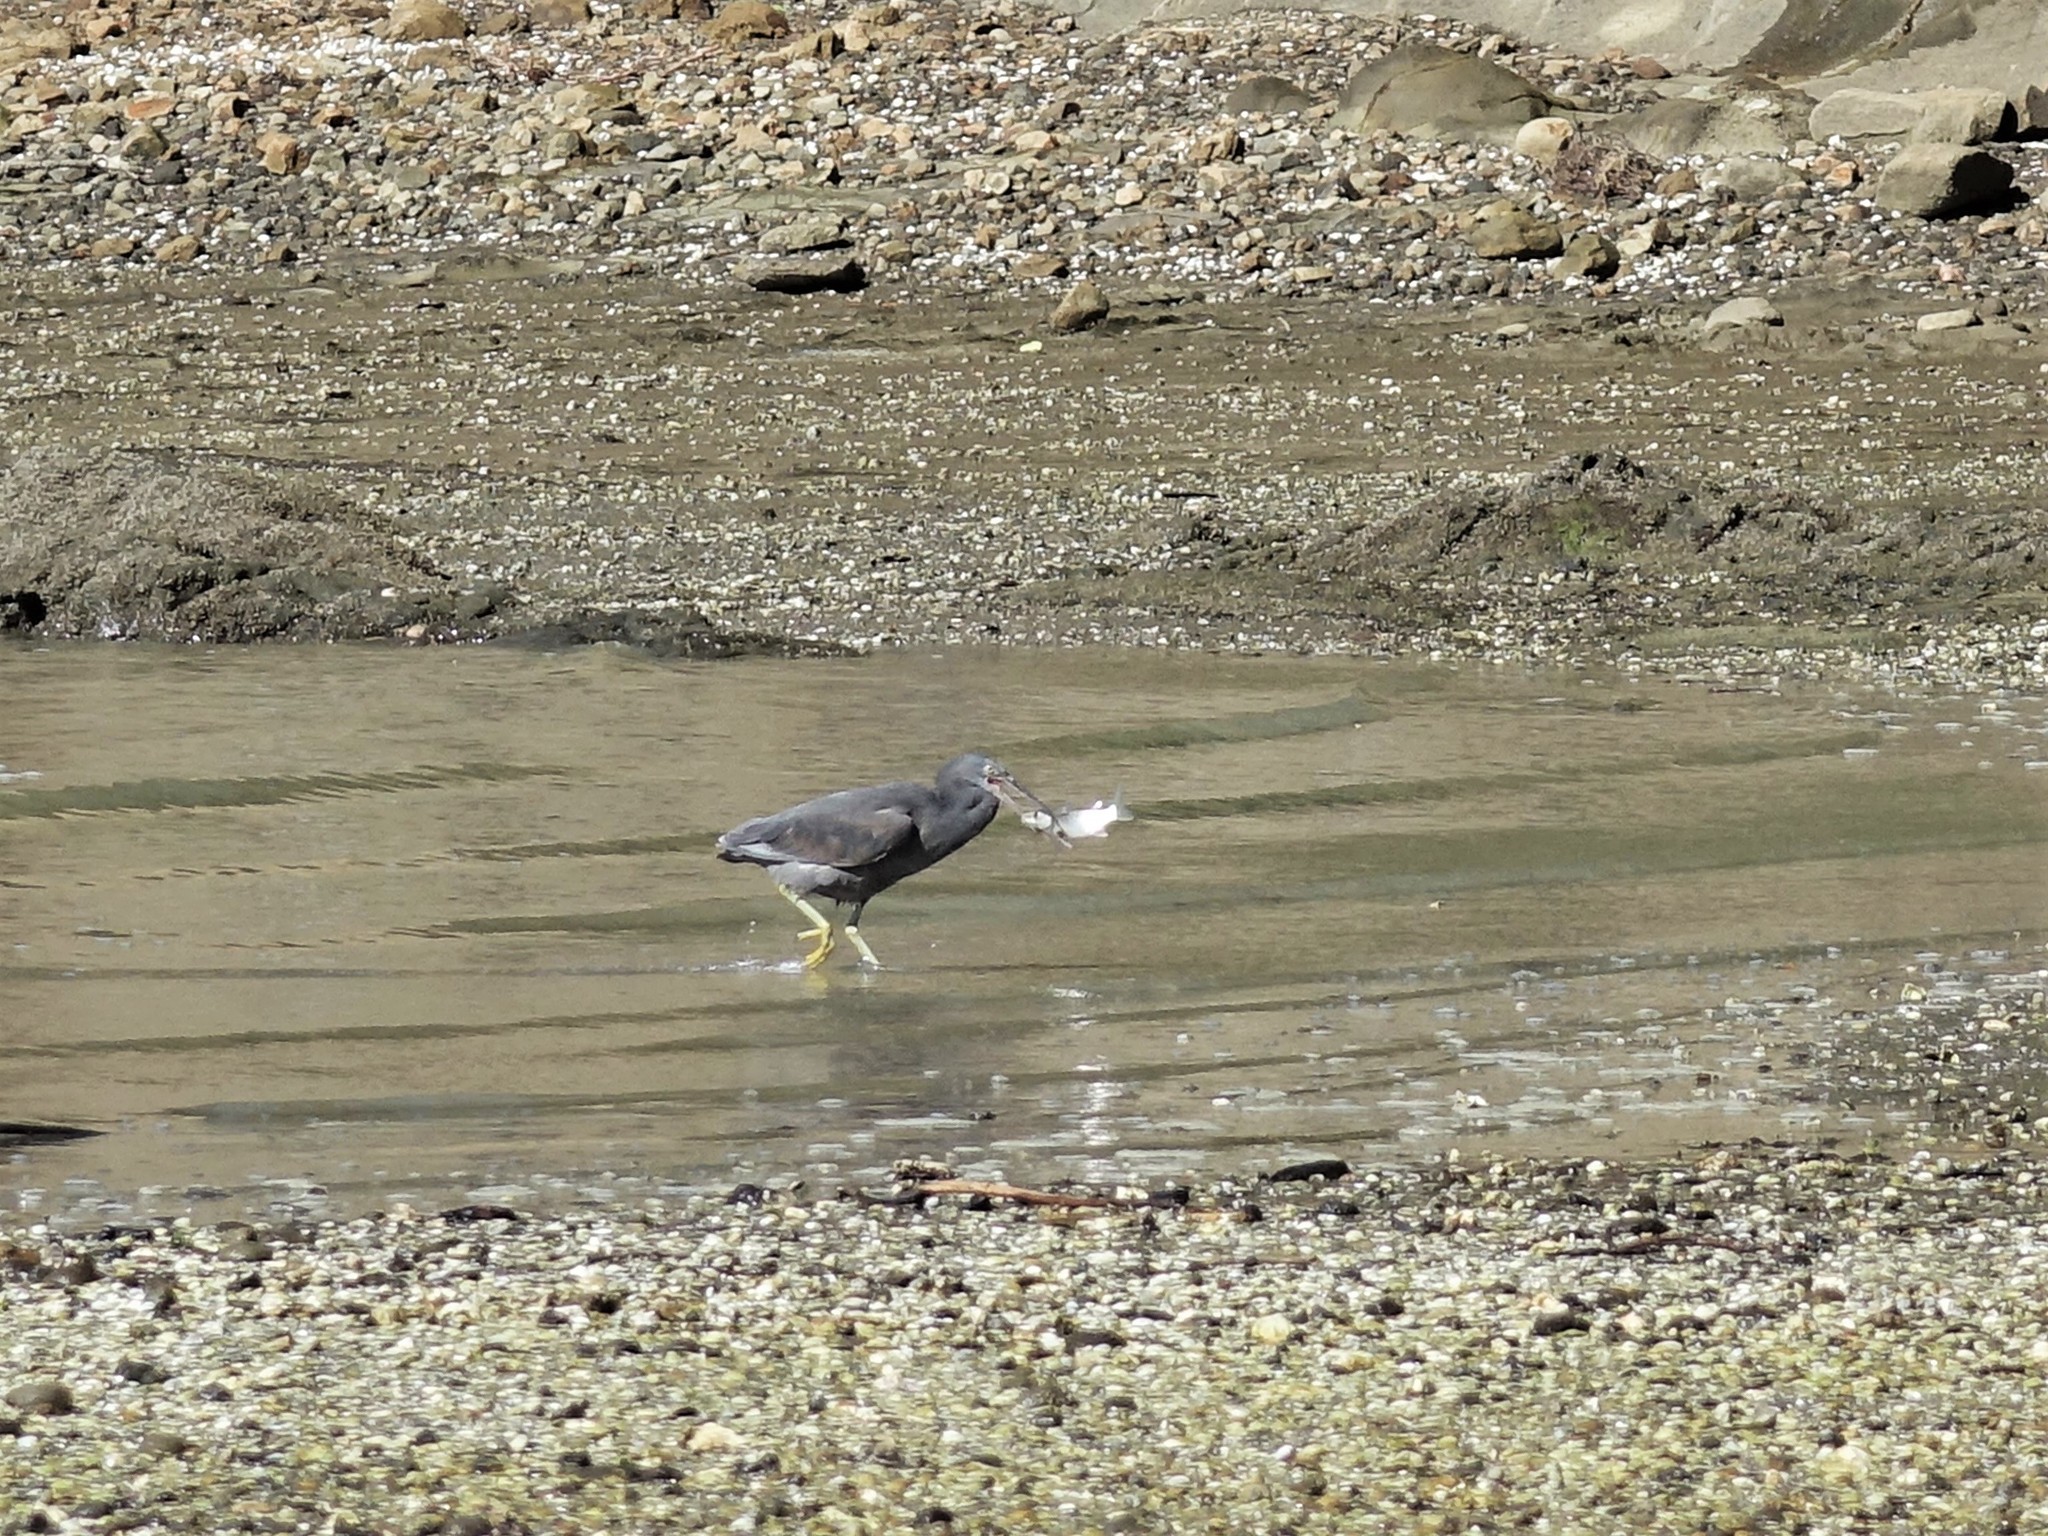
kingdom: Animalia
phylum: Chordata
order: Mugiliformes
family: Mugilidae
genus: Mugil
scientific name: Mugil cephalus
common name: Grey mullet
